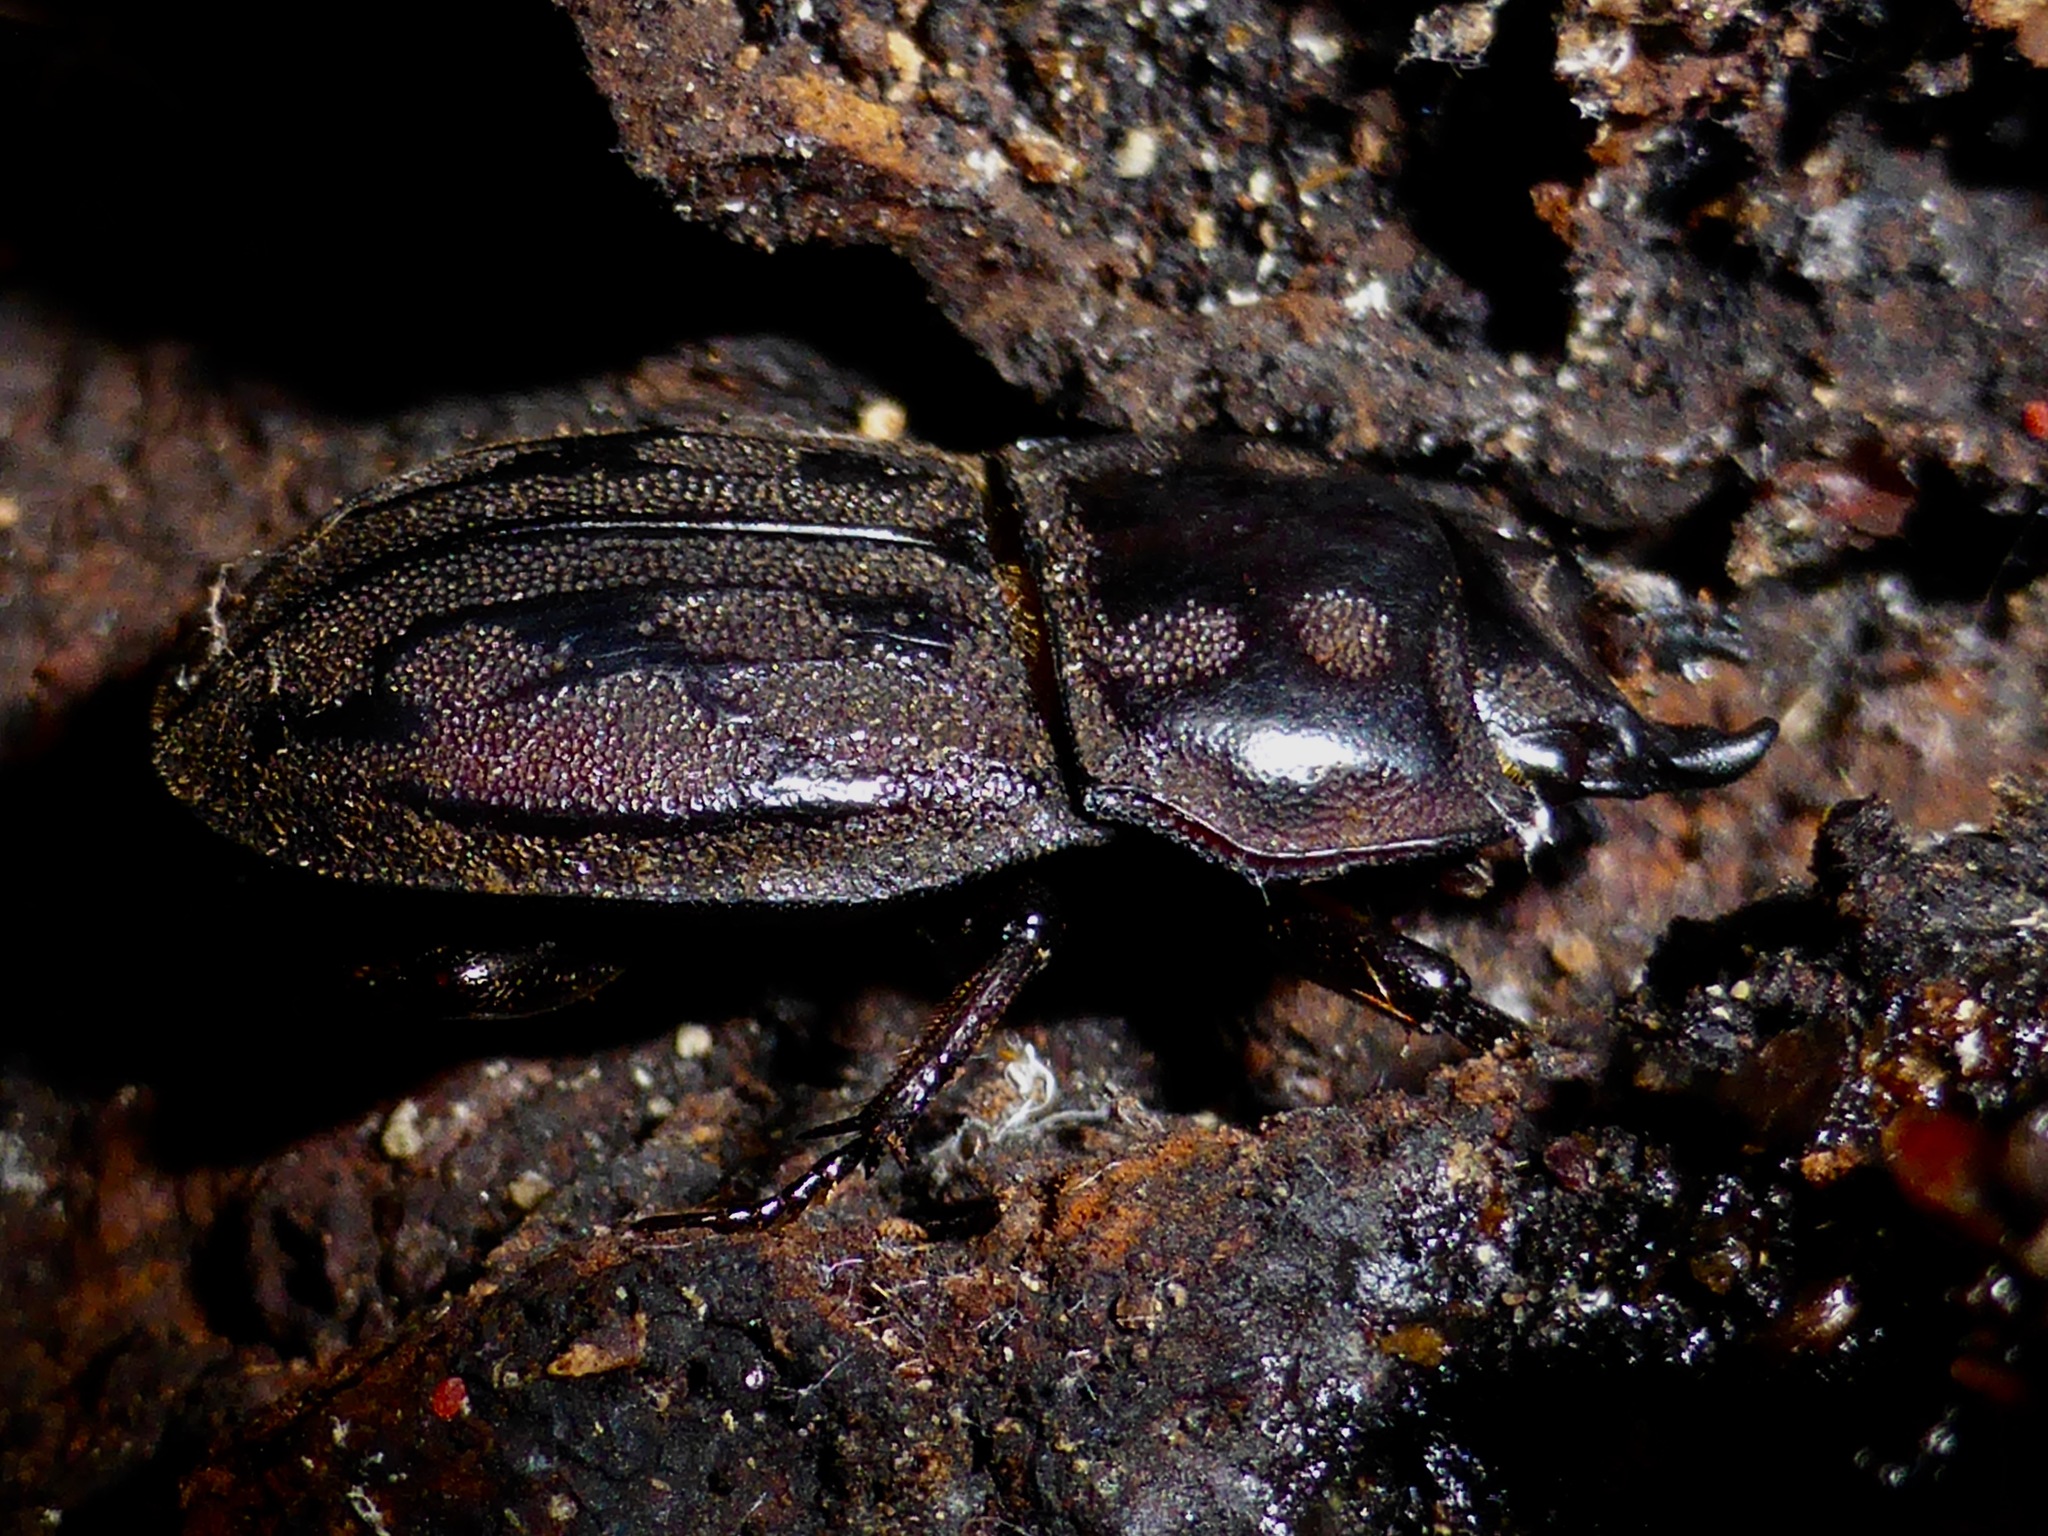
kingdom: Animalia
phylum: Arthropoda
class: Insecta
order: Coleoptera
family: Lucanidae
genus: Paralissotes
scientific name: Paralissotes reticulatus
